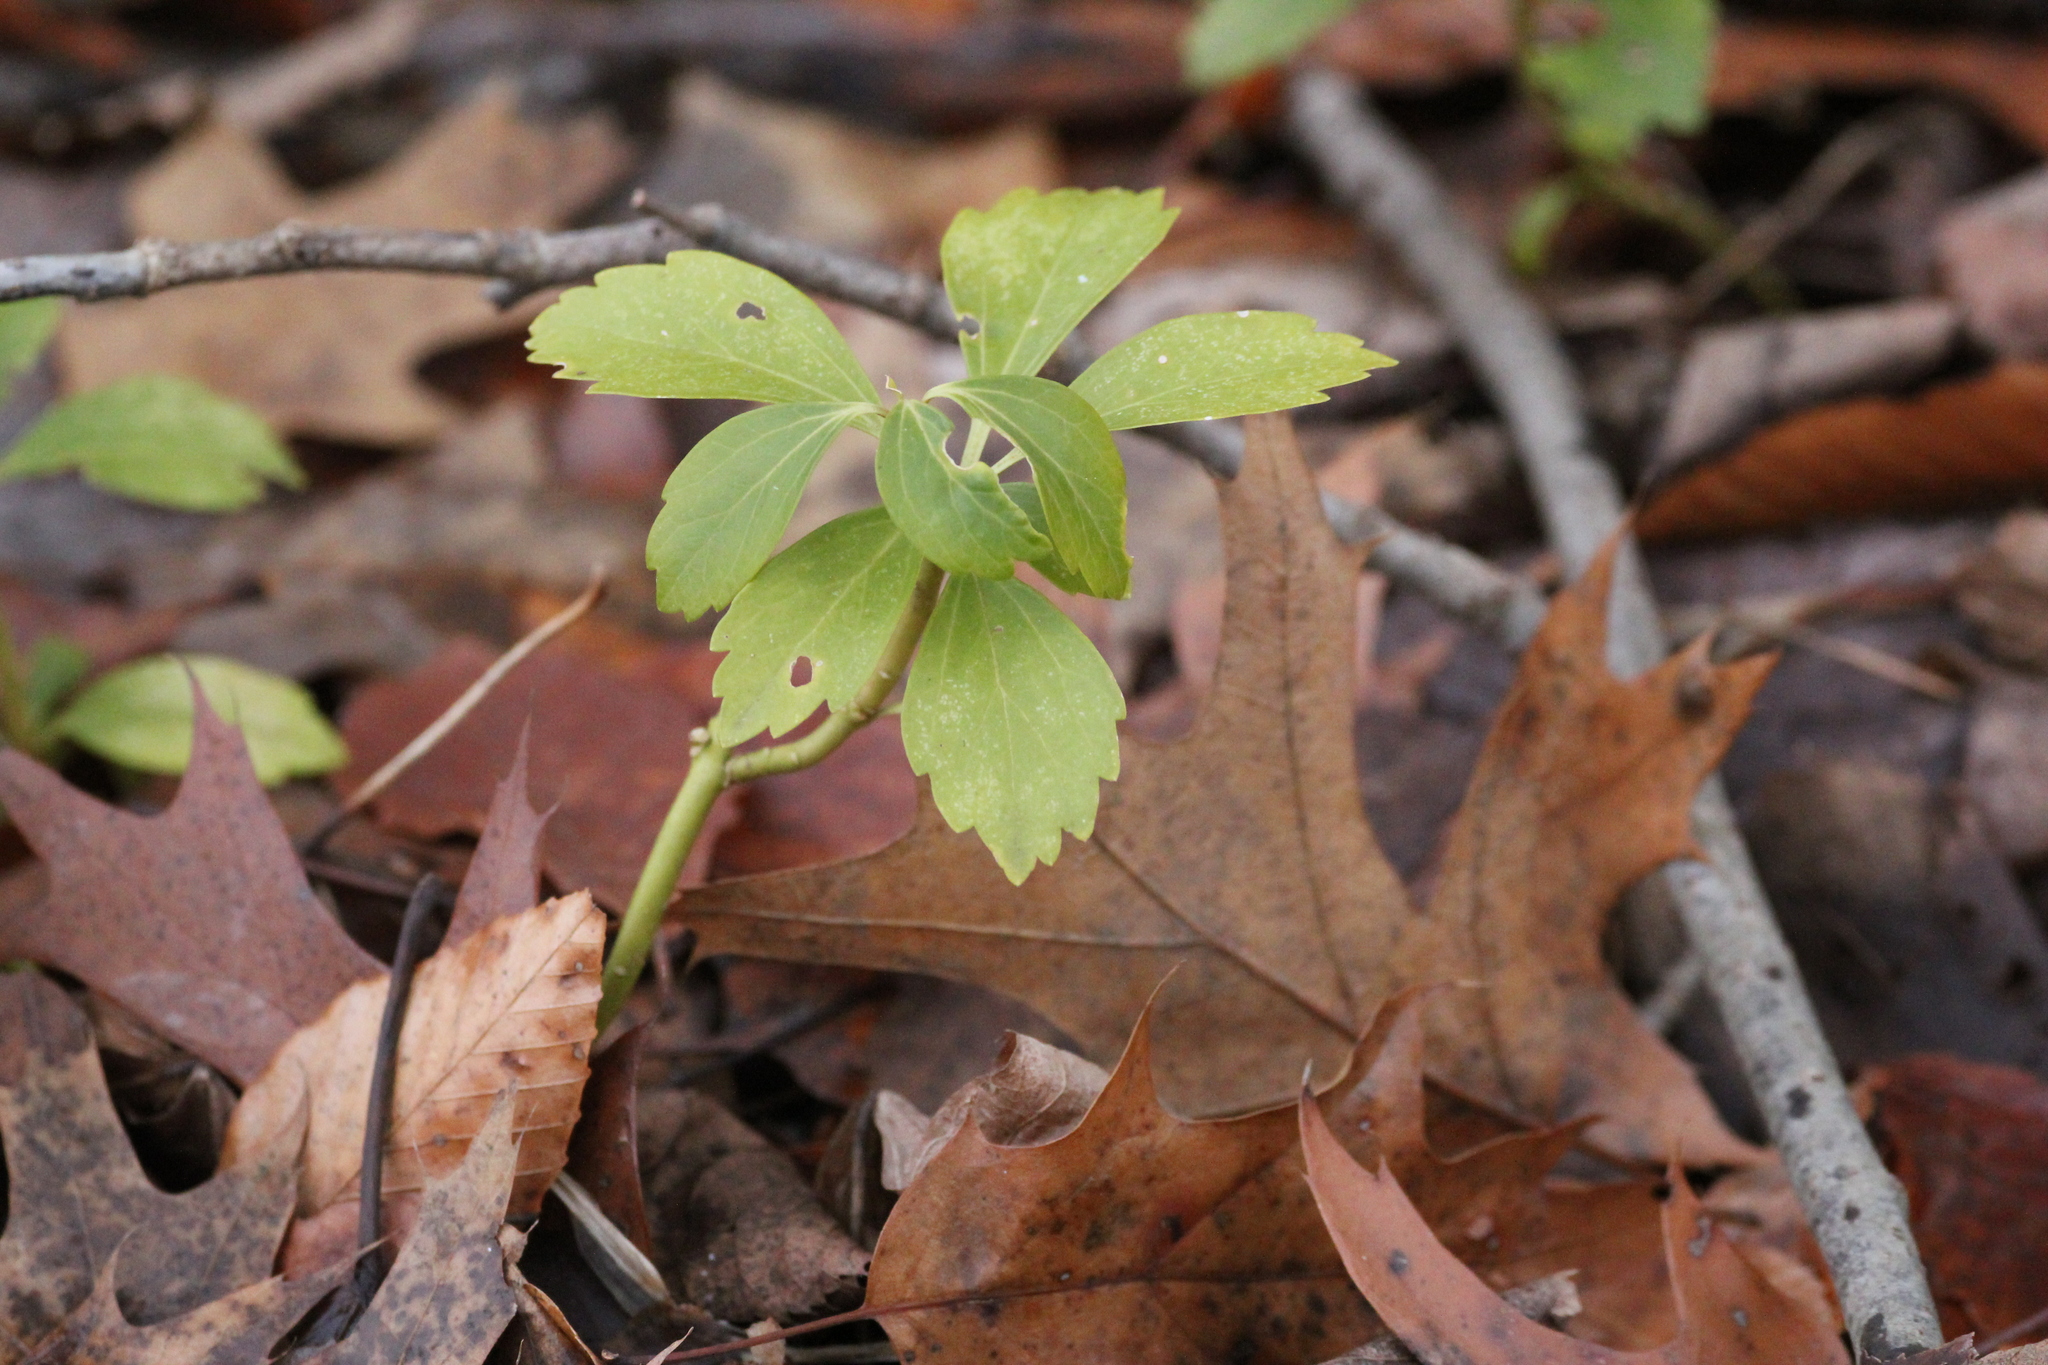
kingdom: Plantae
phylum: Tracheophyta
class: Magnoliopsida
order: Buxales
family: Buxaceae
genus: Pachysandra
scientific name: Pachysandra terminalis
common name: Japanese pachysandra
